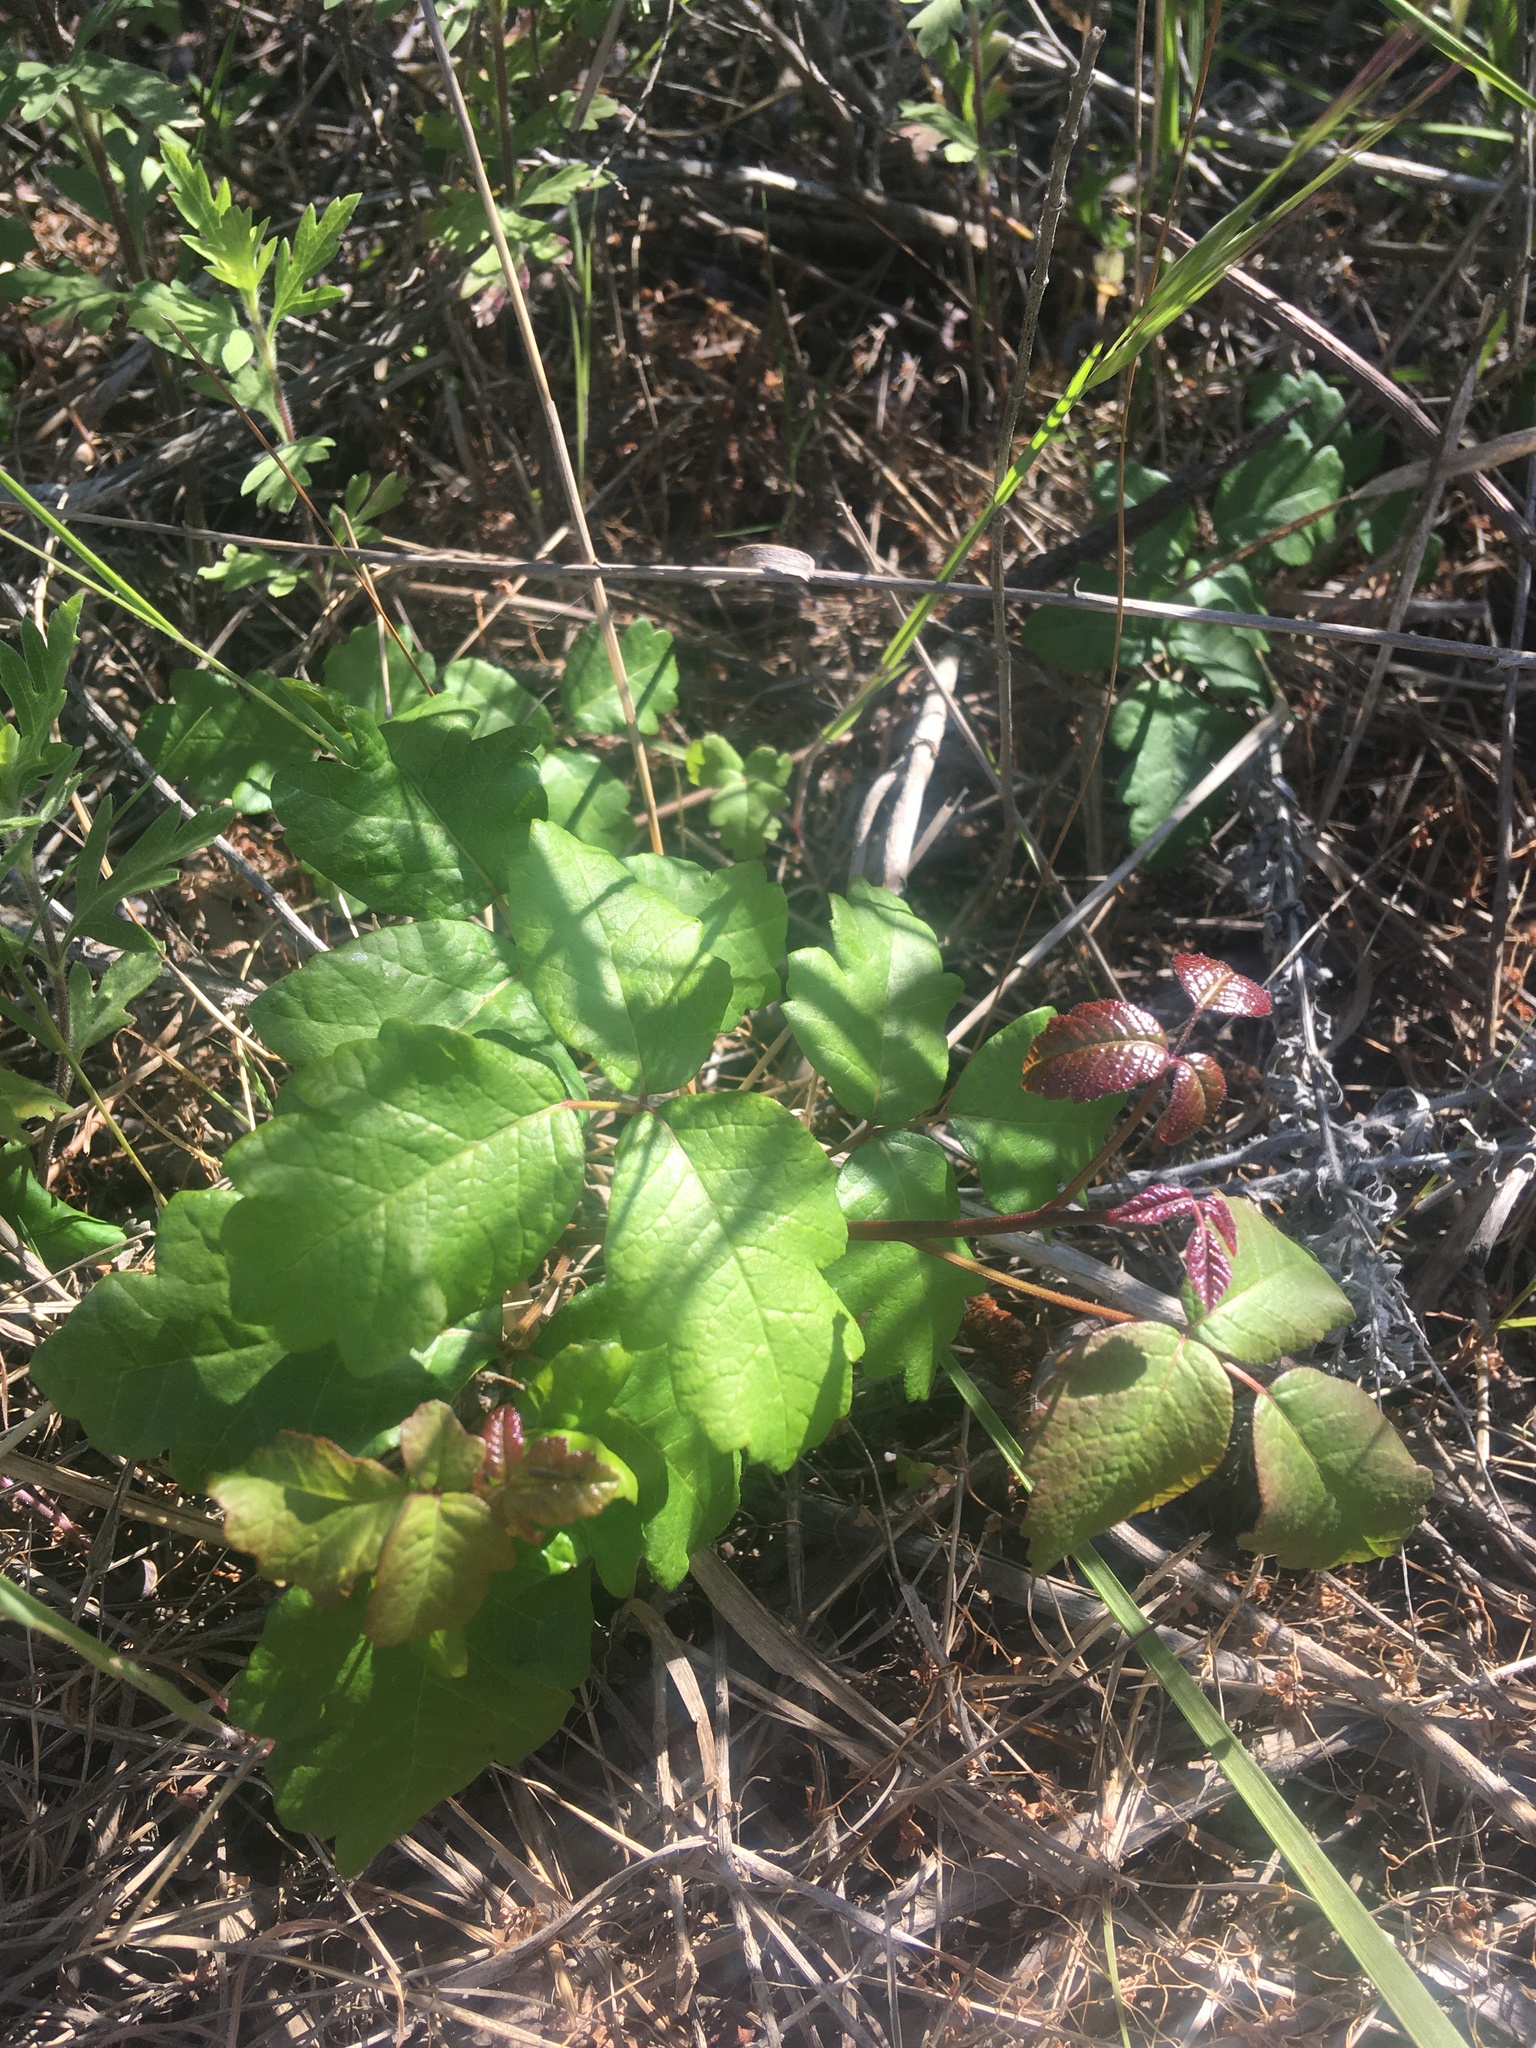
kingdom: Plantae
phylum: Tracheophyta
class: Magnoliopsida
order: Sapindales
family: Anacardiaceae
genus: Toxicodendron
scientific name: Toxicodendron diversilobum
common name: Pacific poison-oak
